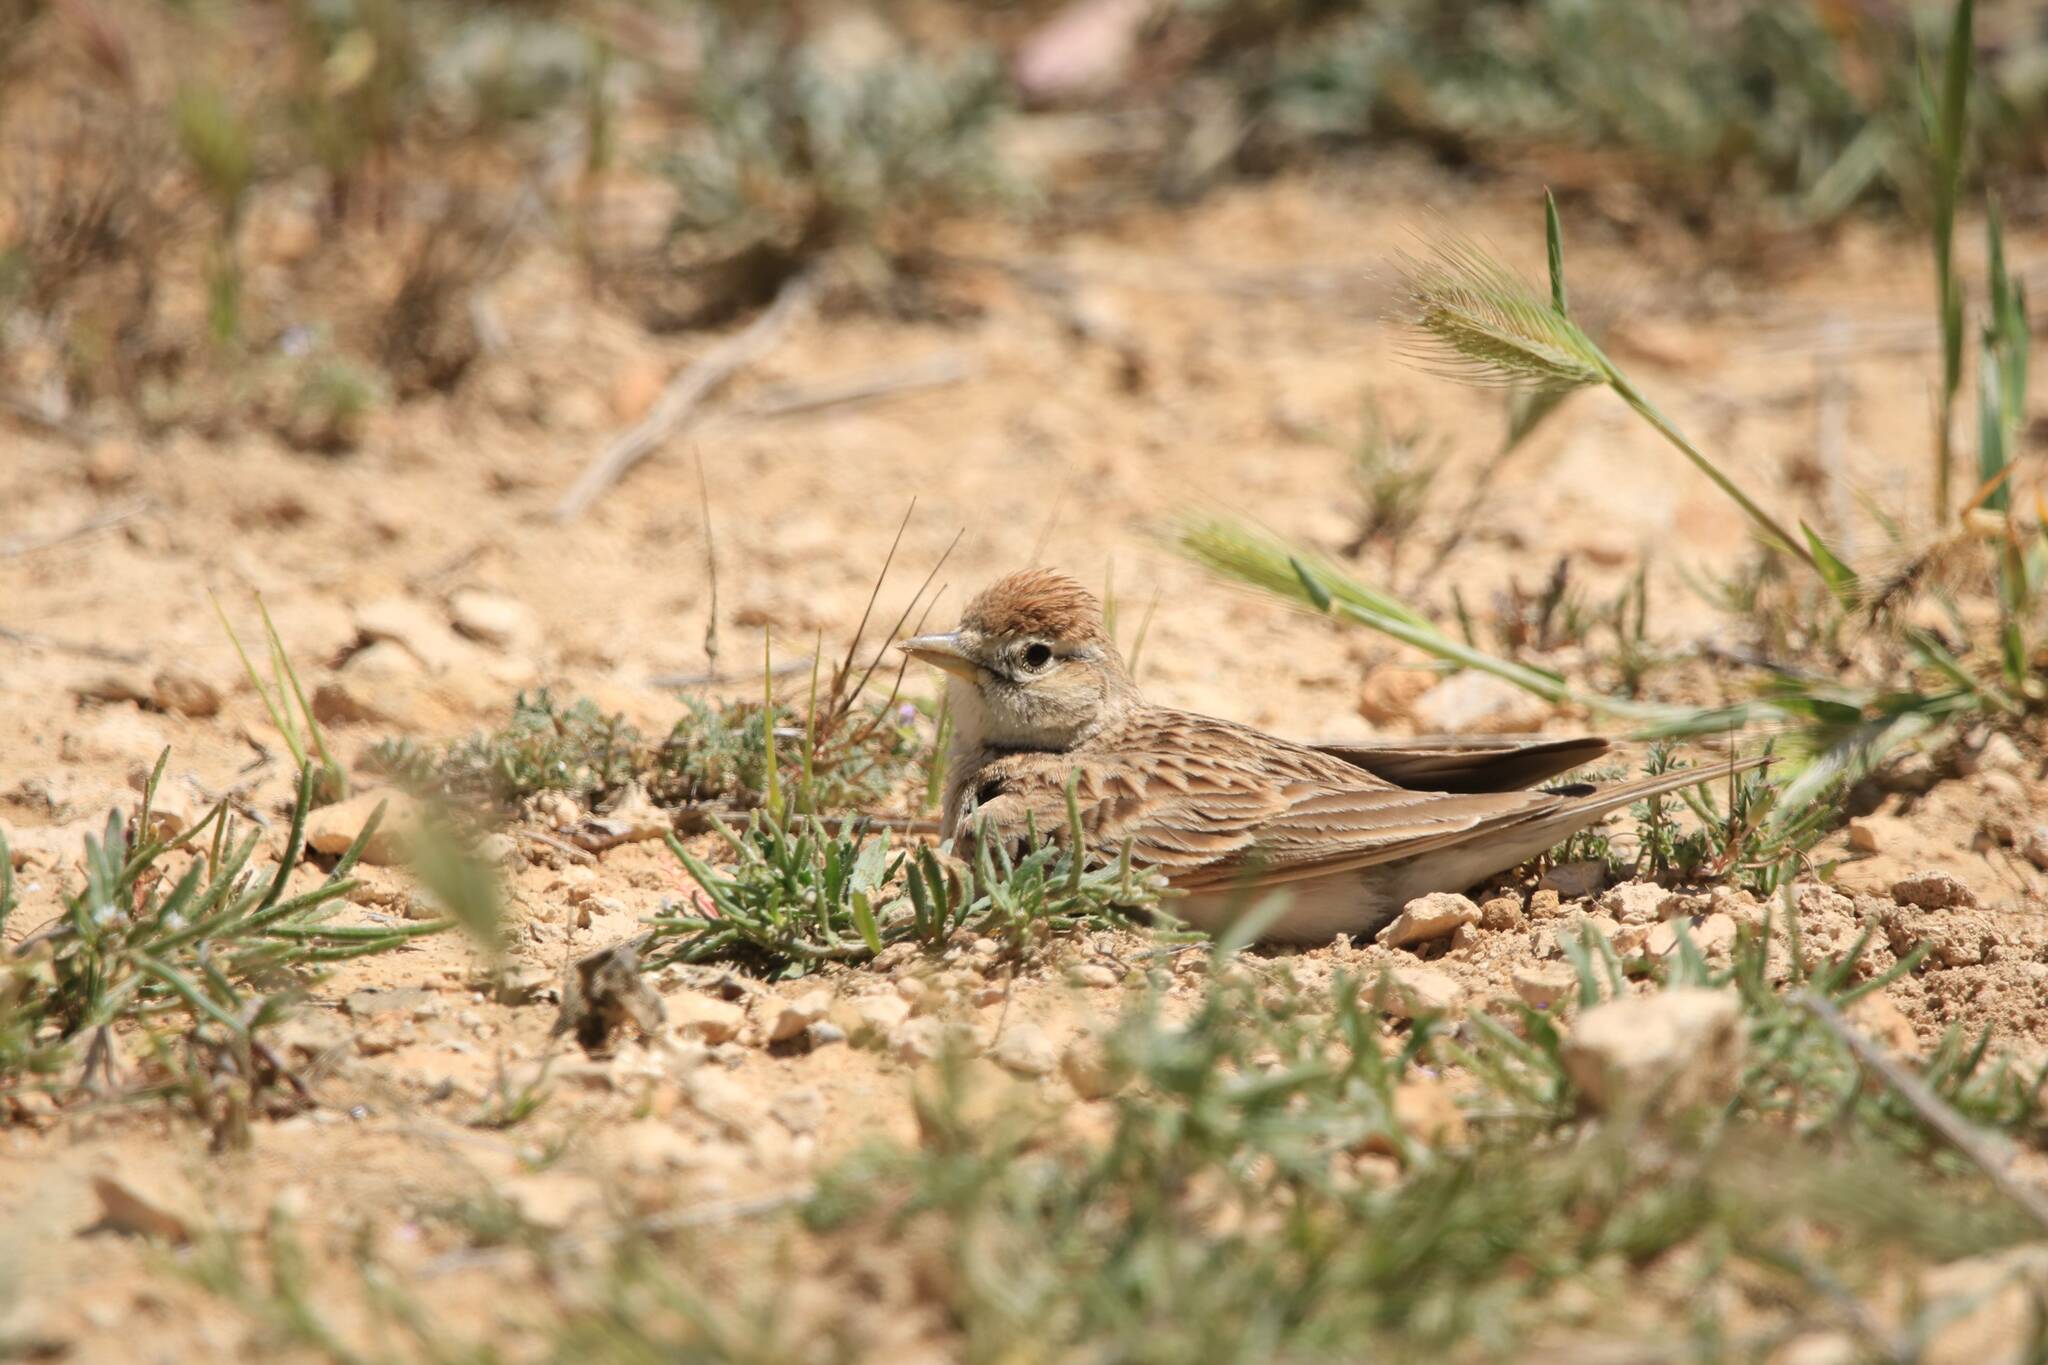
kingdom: Animalia
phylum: Chordata
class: Aves
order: Passeriformes
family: Alaudidae
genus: Calandrella
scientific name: Calandrella brachydactyla
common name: Greater short-toed lark
